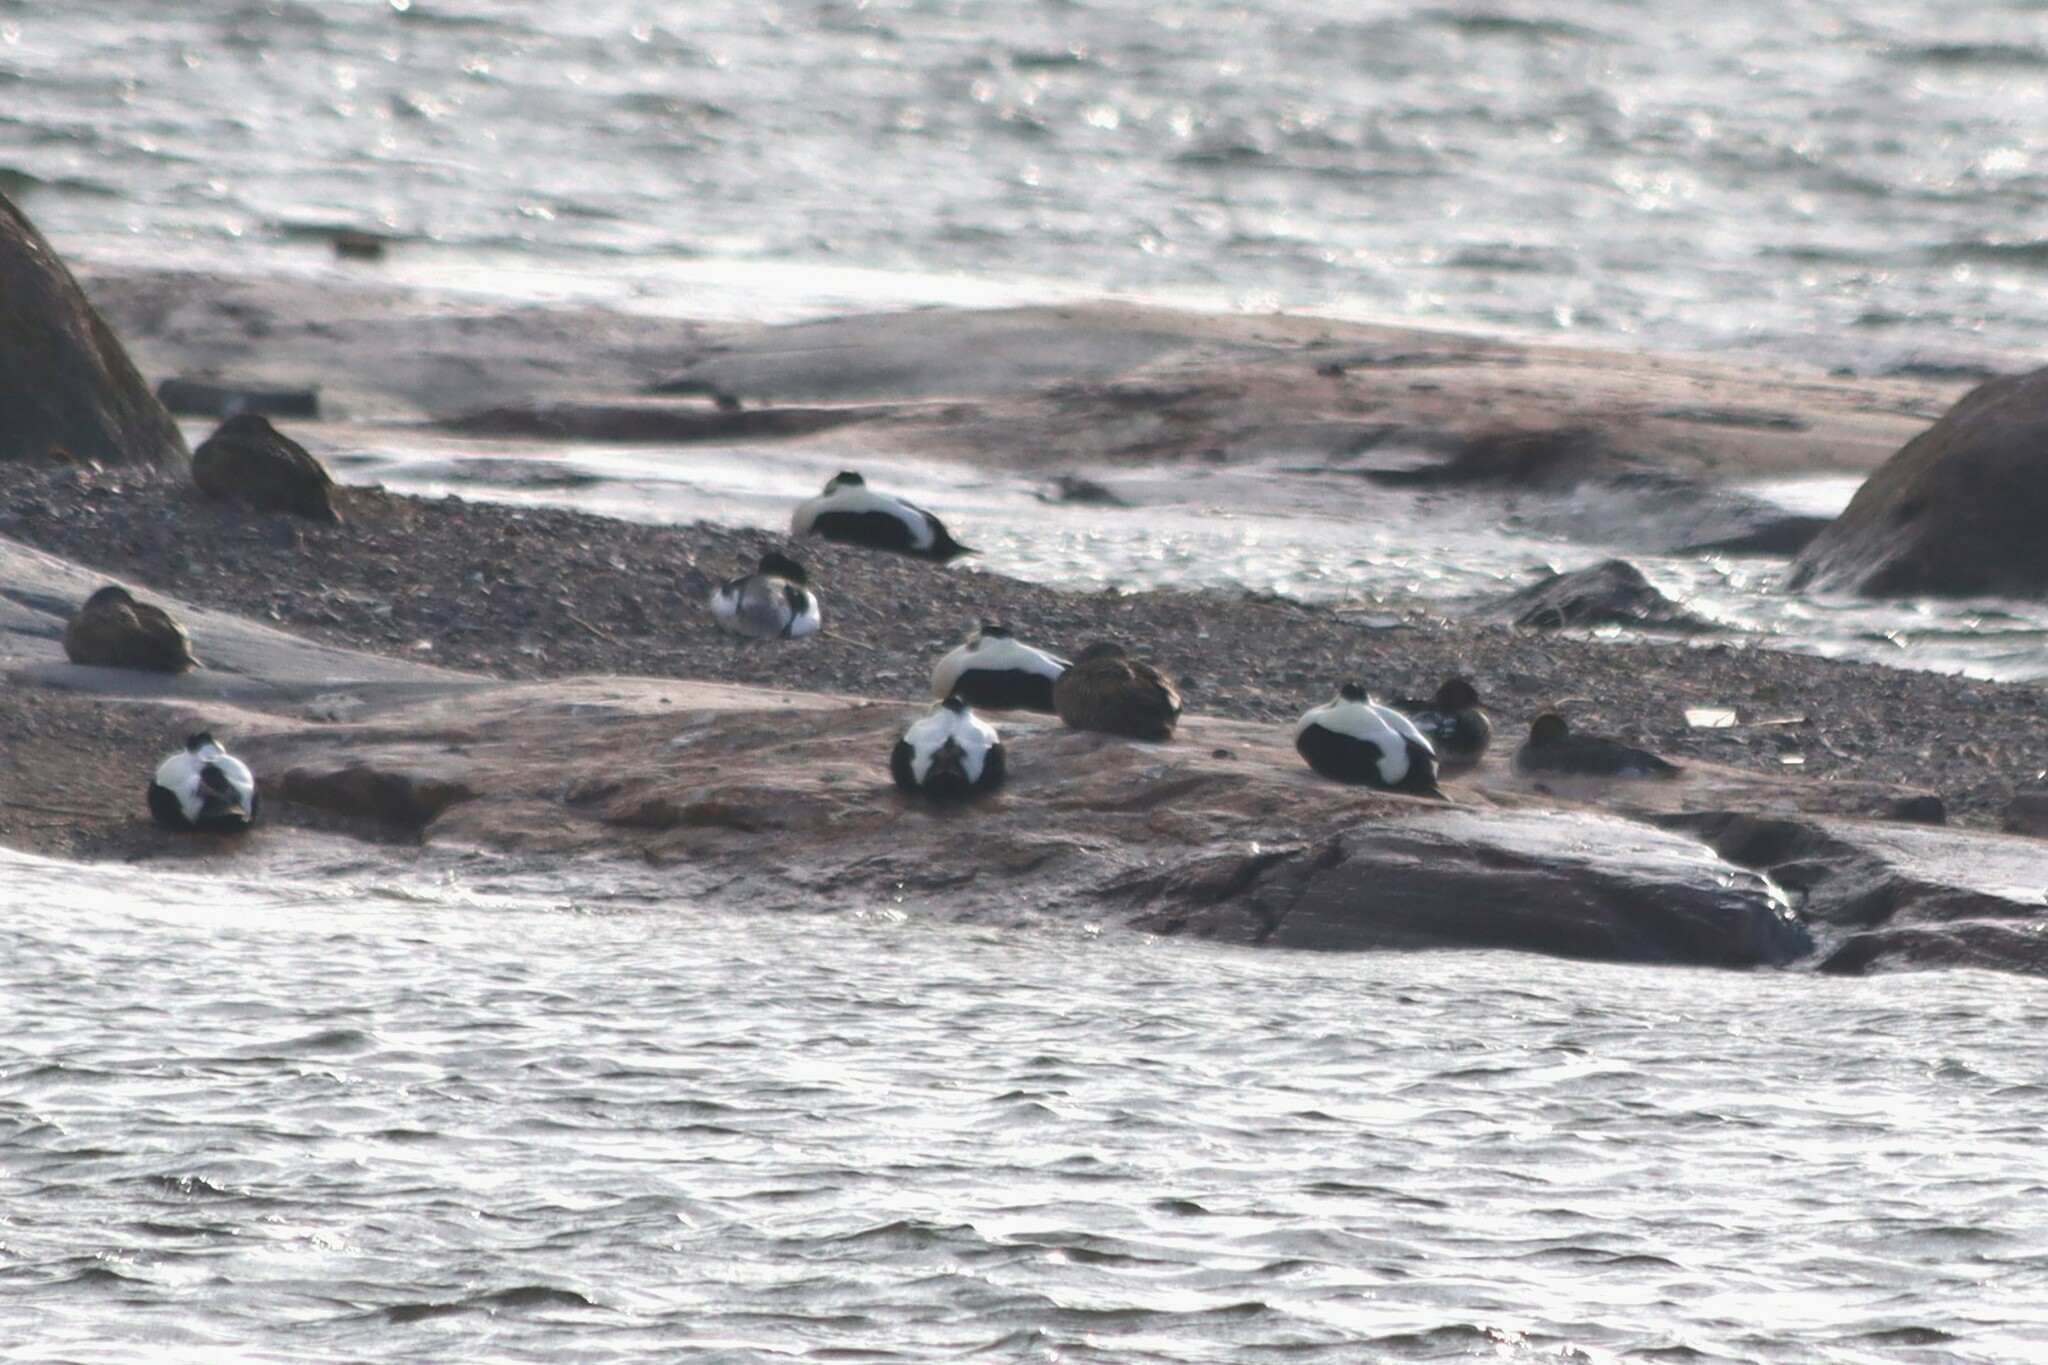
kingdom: Animalia
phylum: Chordata
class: Aves
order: Anseriformes
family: Anatidae
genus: Somateria
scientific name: Somateria mollissima
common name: Common eider
